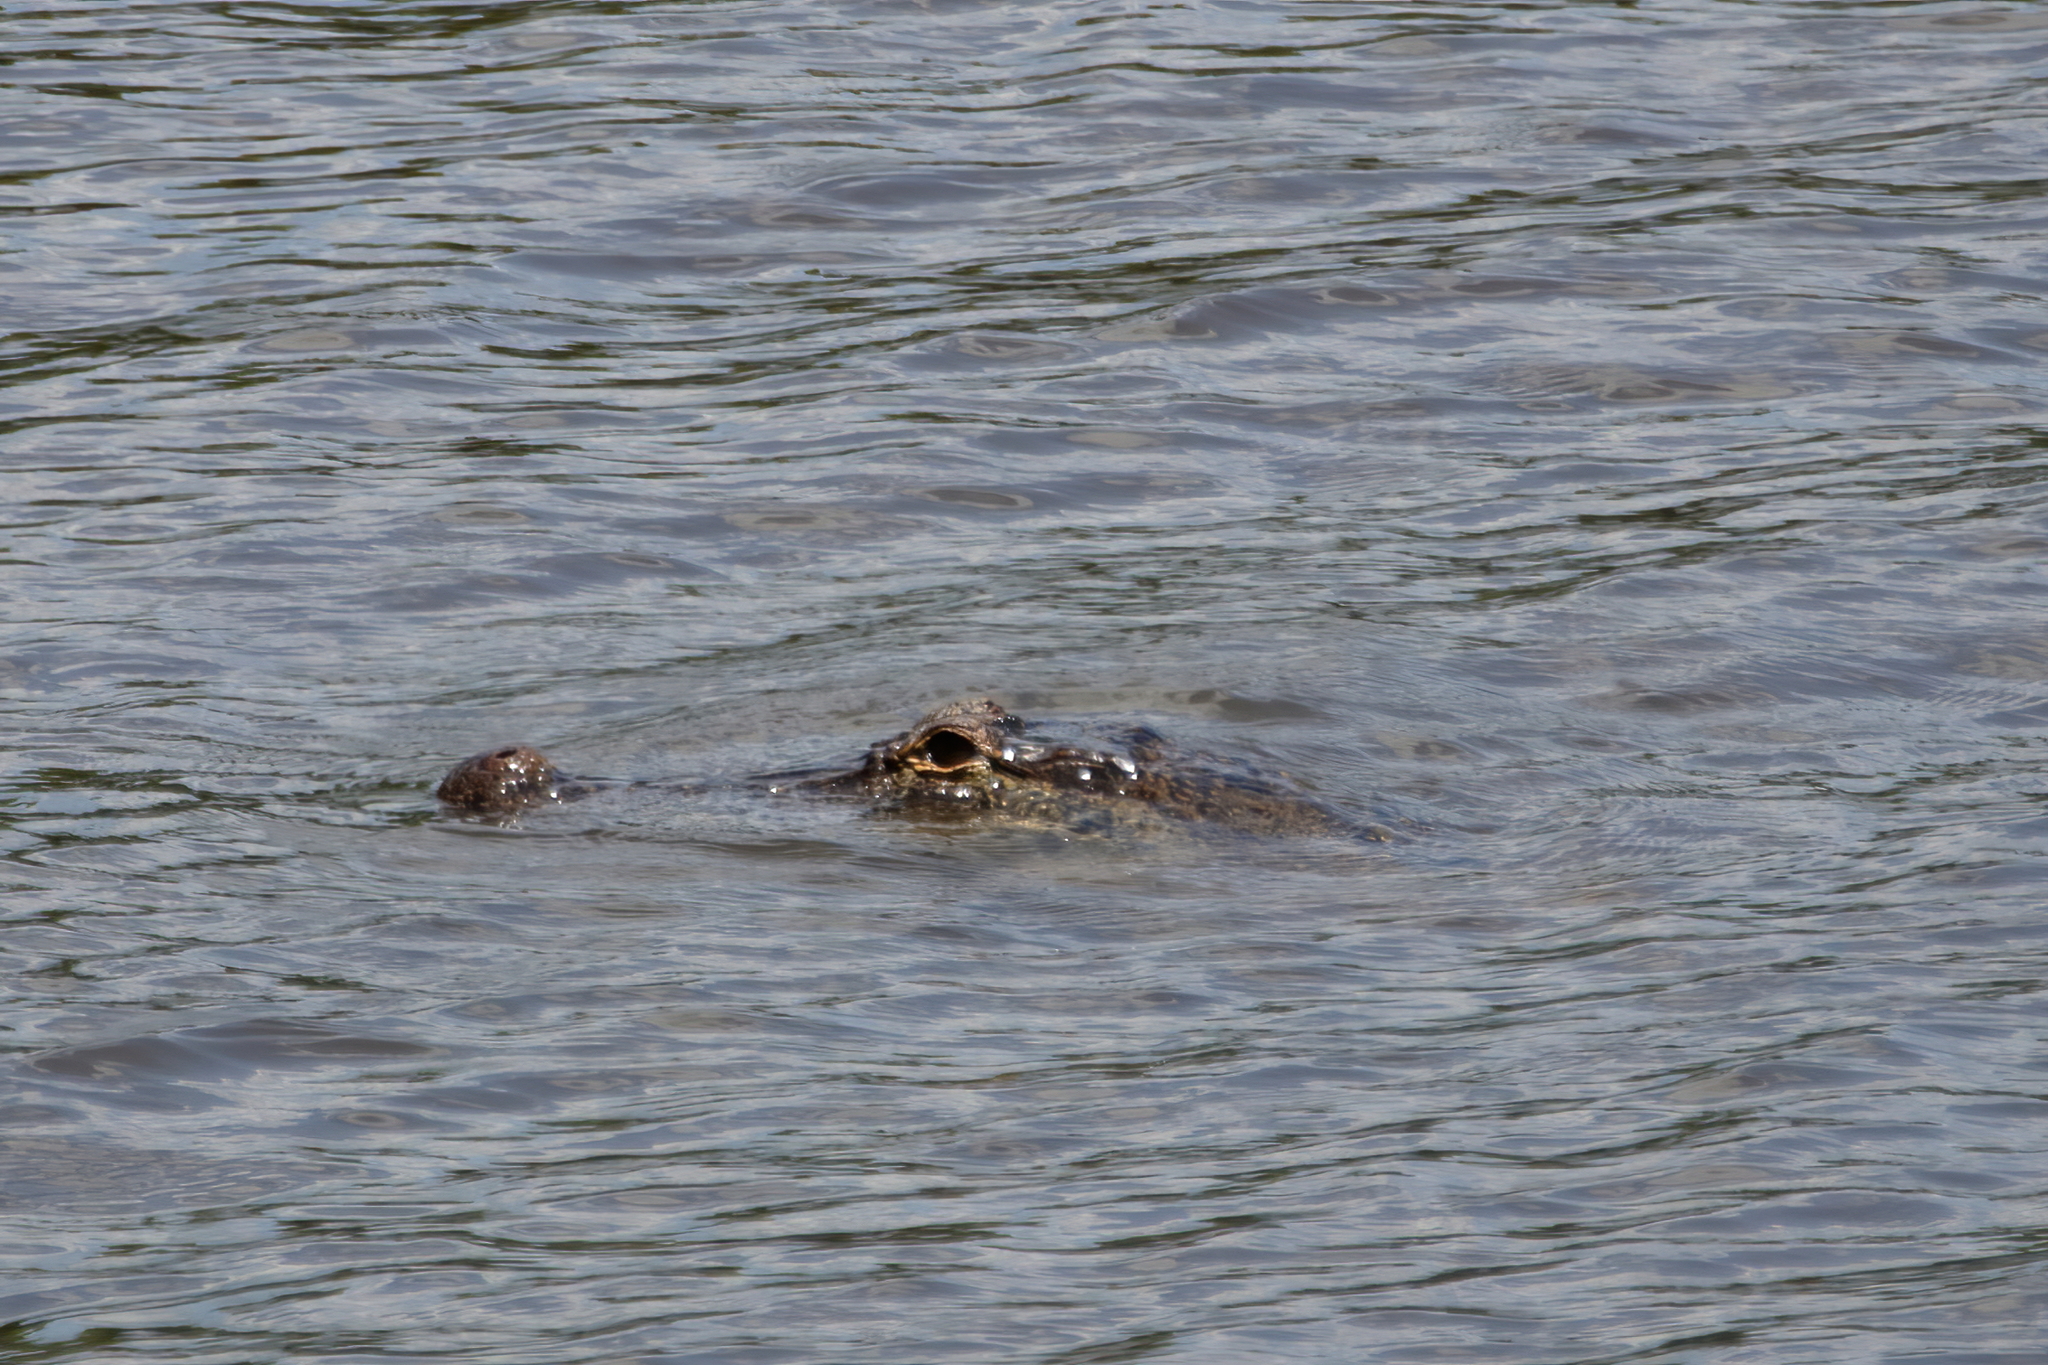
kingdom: Animalia
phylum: Chordata
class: Crocodylia
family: Alligatoridae
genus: Alligator
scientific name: Alligator mississippiensis
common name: American alligator
